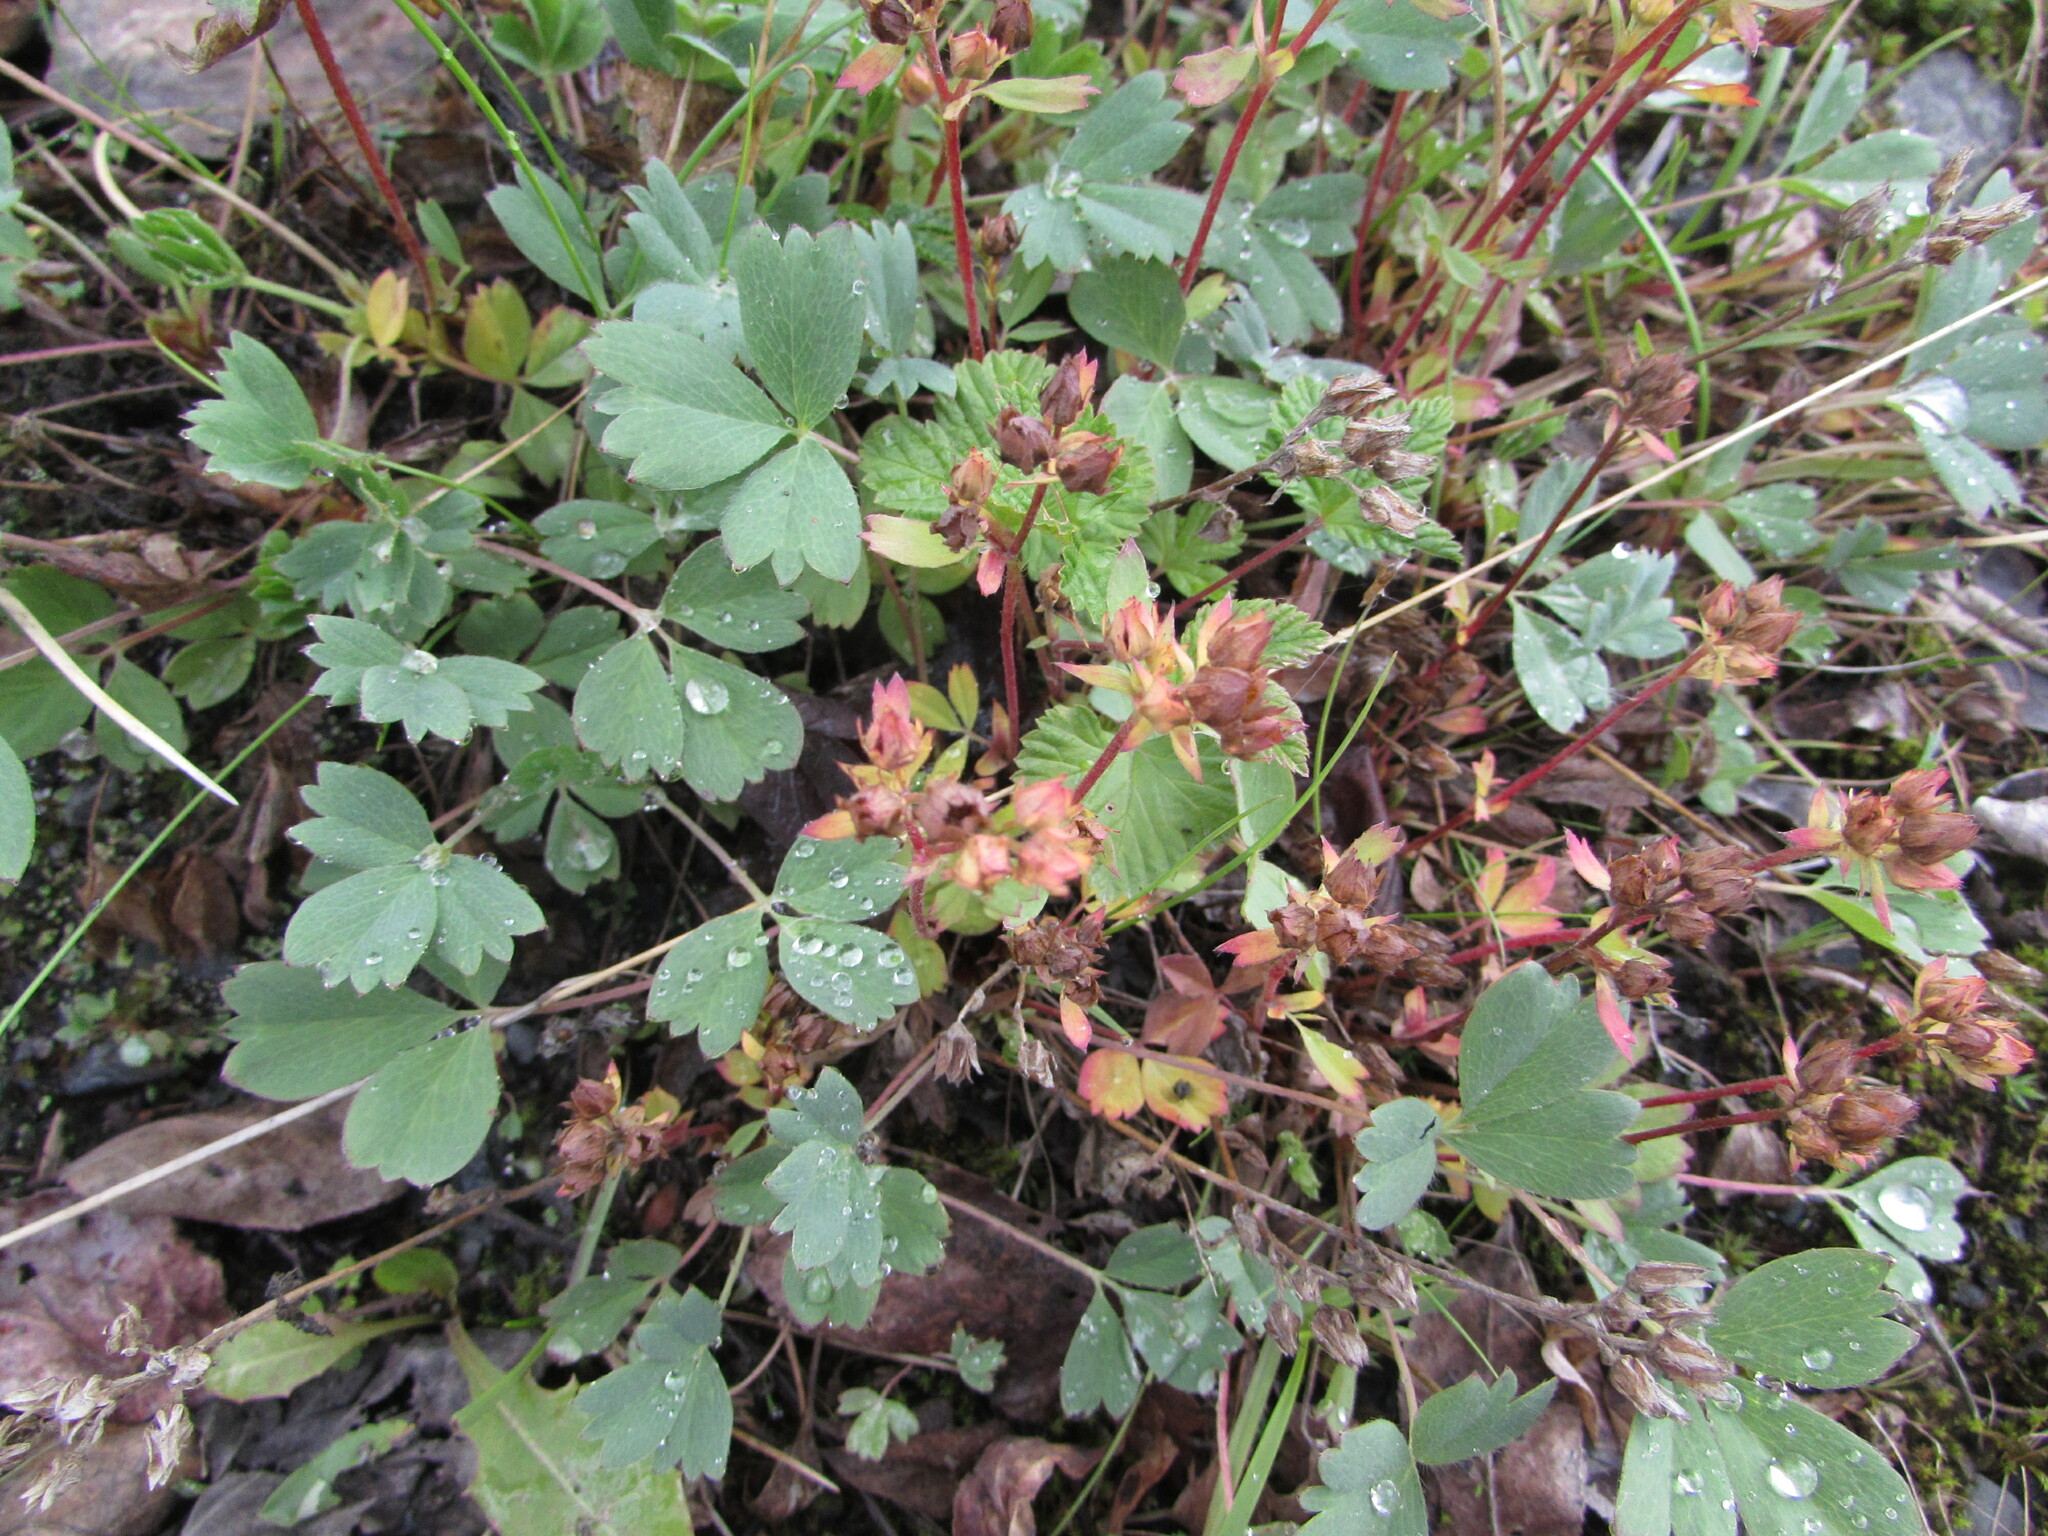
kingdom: Plantae
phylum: Tracheophyta
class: Magnoliopsida
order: Rosales
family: Rosaceae
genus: Sibbaldia
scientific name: Sibbaldia procumbens
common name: Creeping sibbaldia
